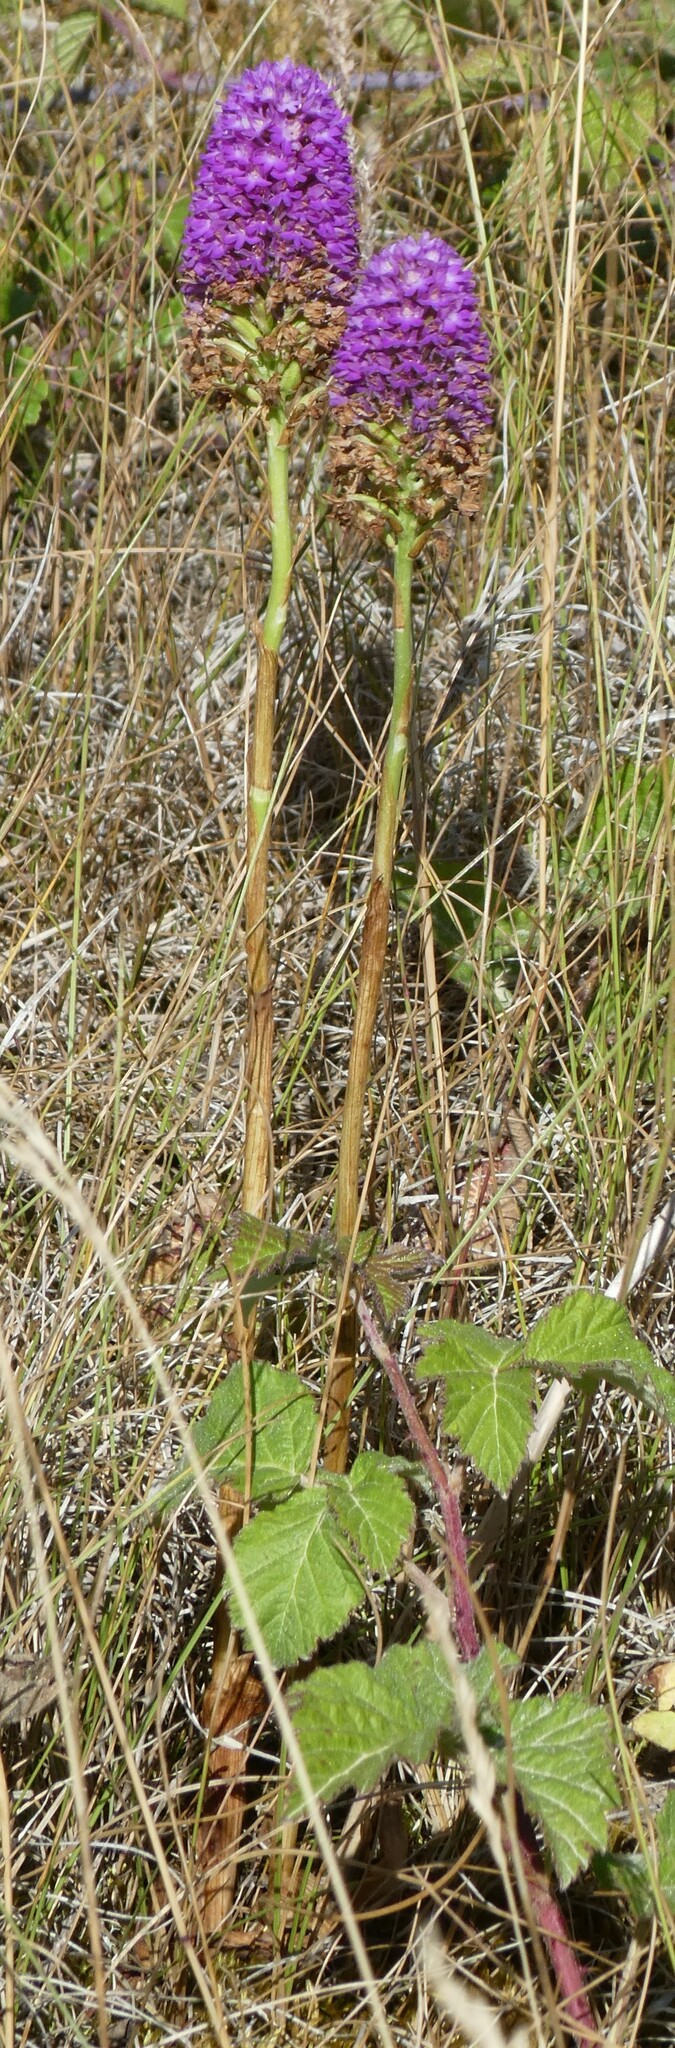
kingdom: Plantae
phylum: Tracheophyta
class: Liliopsida
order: Asparagales
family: Orchidaceae
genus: Anacamptis
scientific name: Anacamptis pyramidalis
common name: Pyramidal orchid
